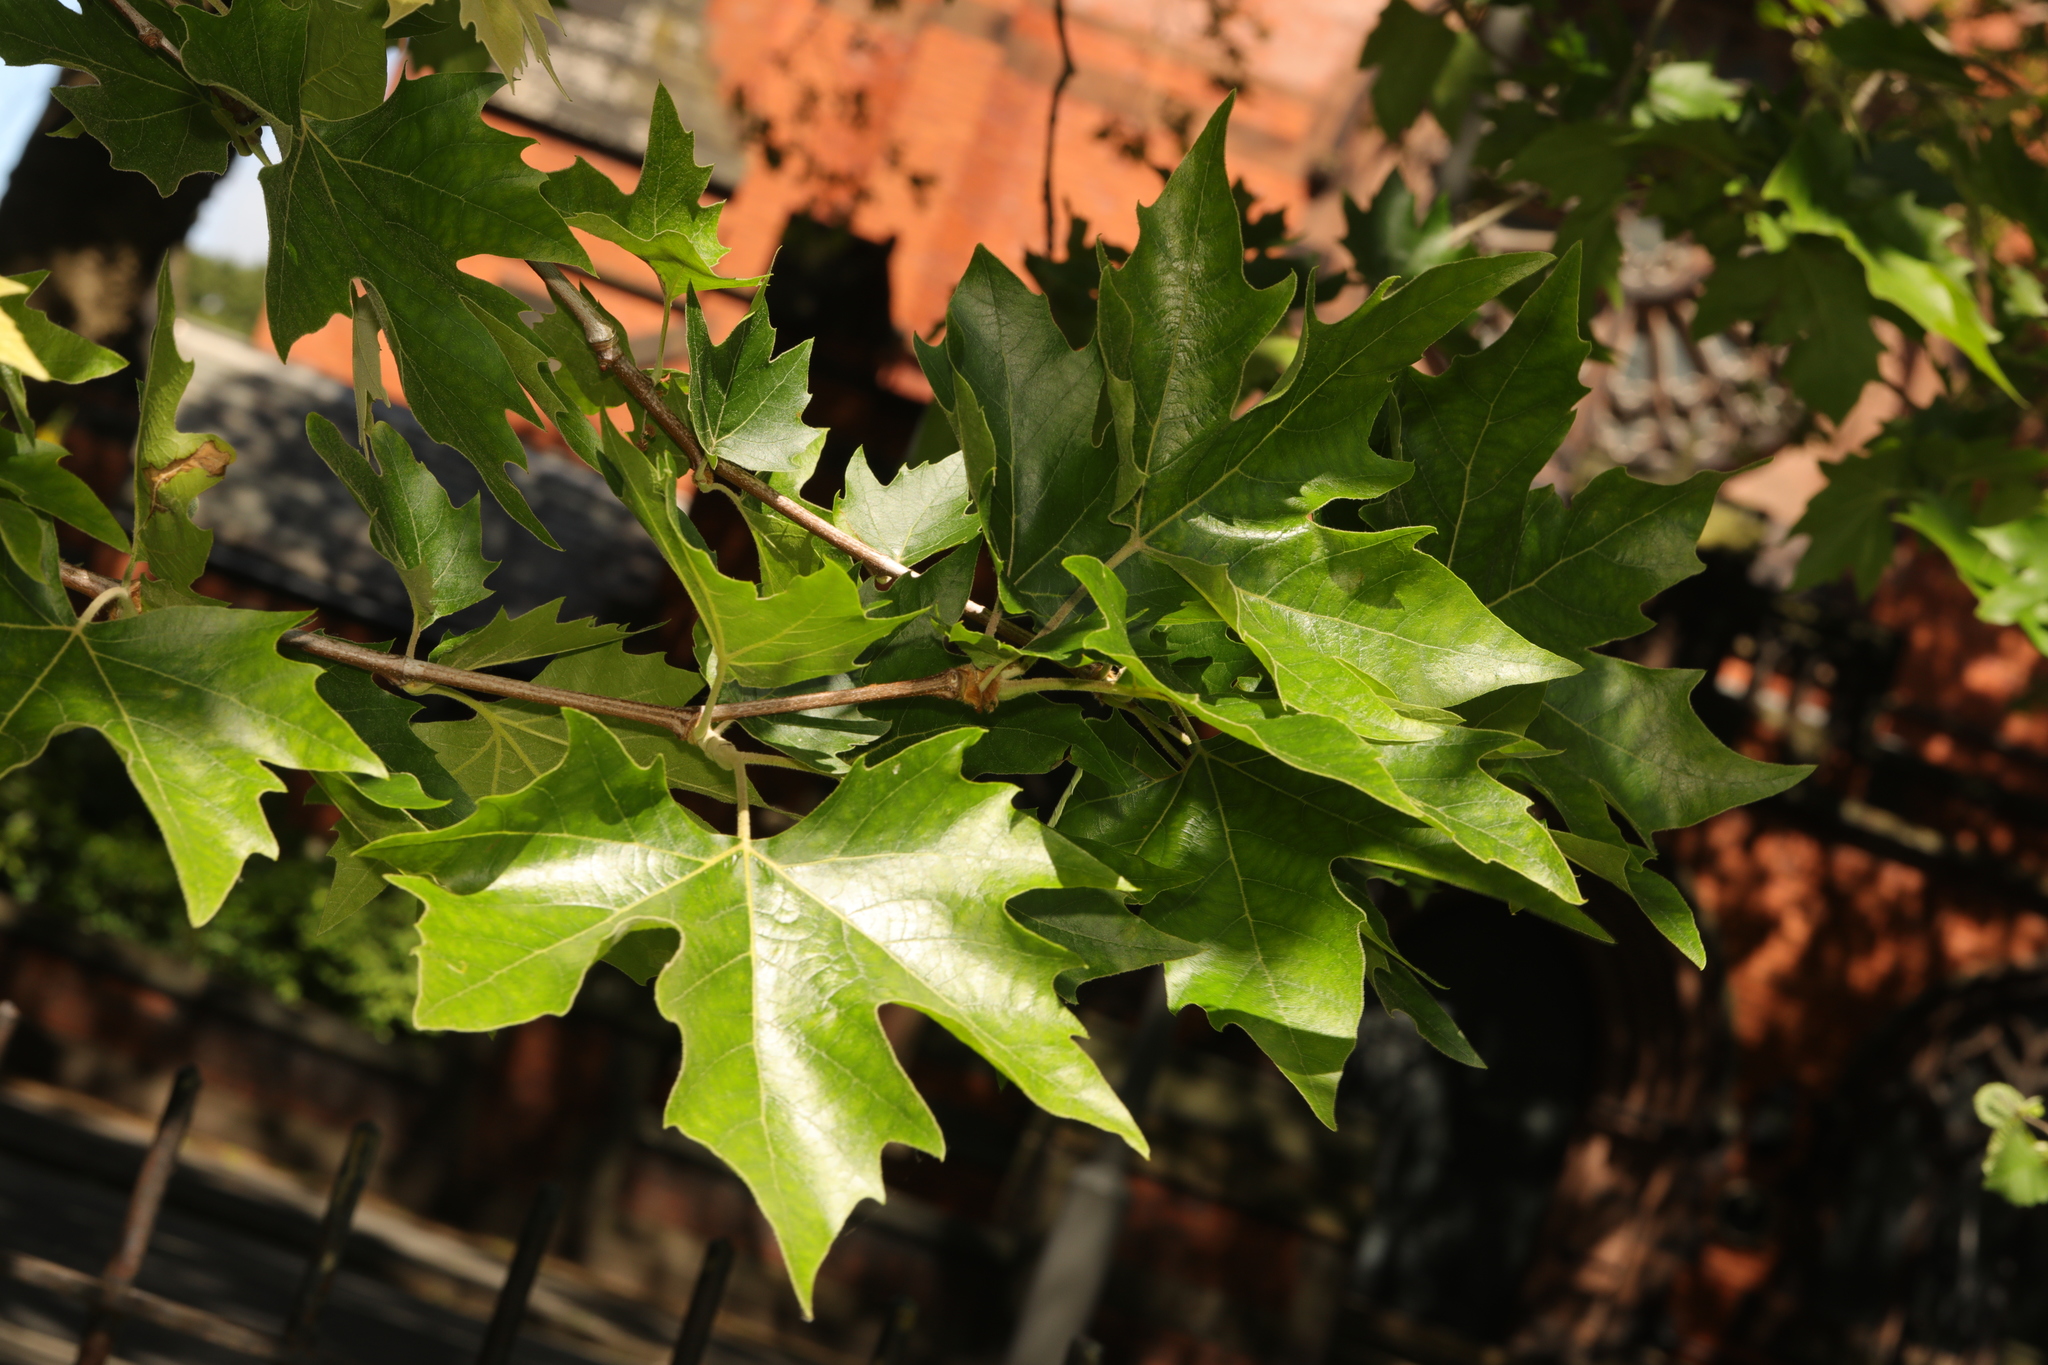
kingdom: Plantae
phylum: Tracheophyta
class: Magnoliopsida
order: Proteales
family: Platanaceae
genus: Platanus
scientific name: Platanus hispanica
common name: London plane
